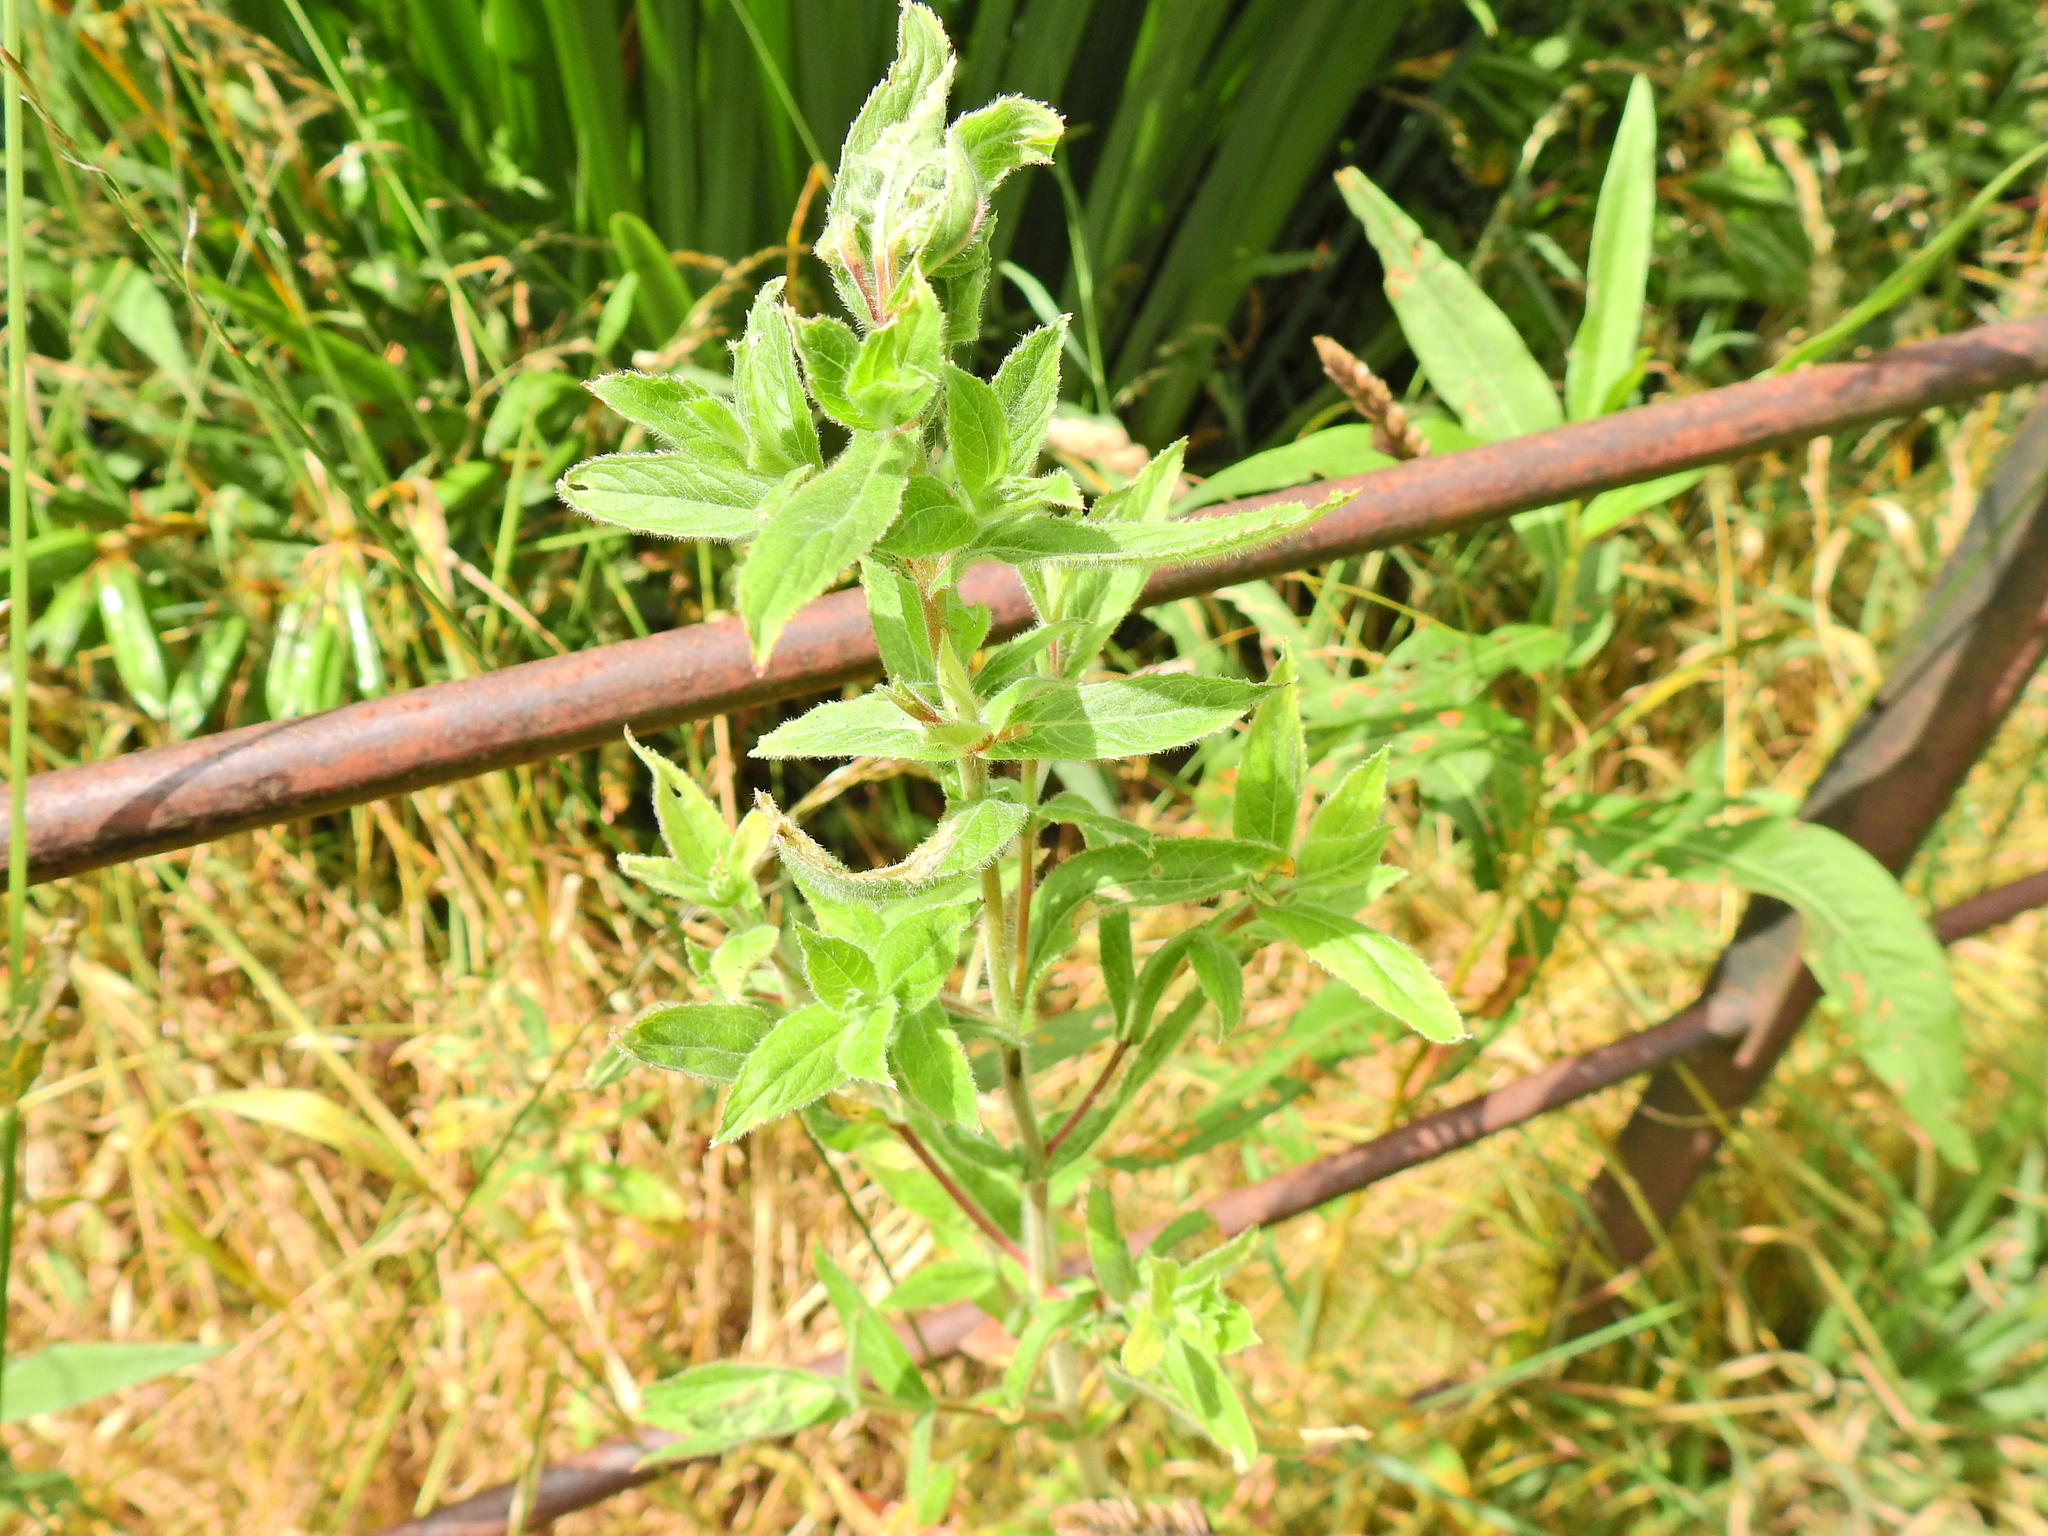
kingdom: Plantae
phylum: Tracheophyta
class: Magnoliopsida
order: Myrtales
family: Onagraceae
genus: Epilobium
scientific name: Epilobium hirsutum
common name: Great willowherb
